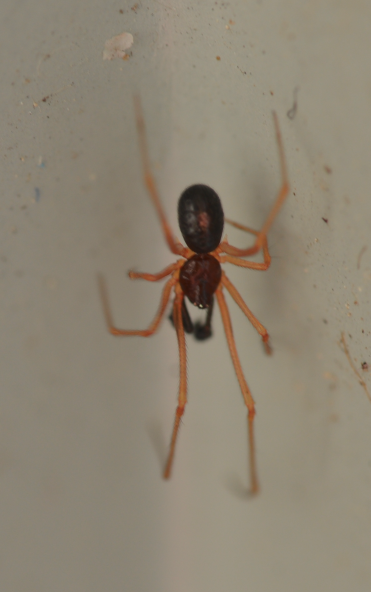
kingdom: Animalia
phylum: Arthropoda
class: Arachnida
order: Araneae
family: Theridiidae
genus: Neottiura
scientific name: Neottiura bimaculata
